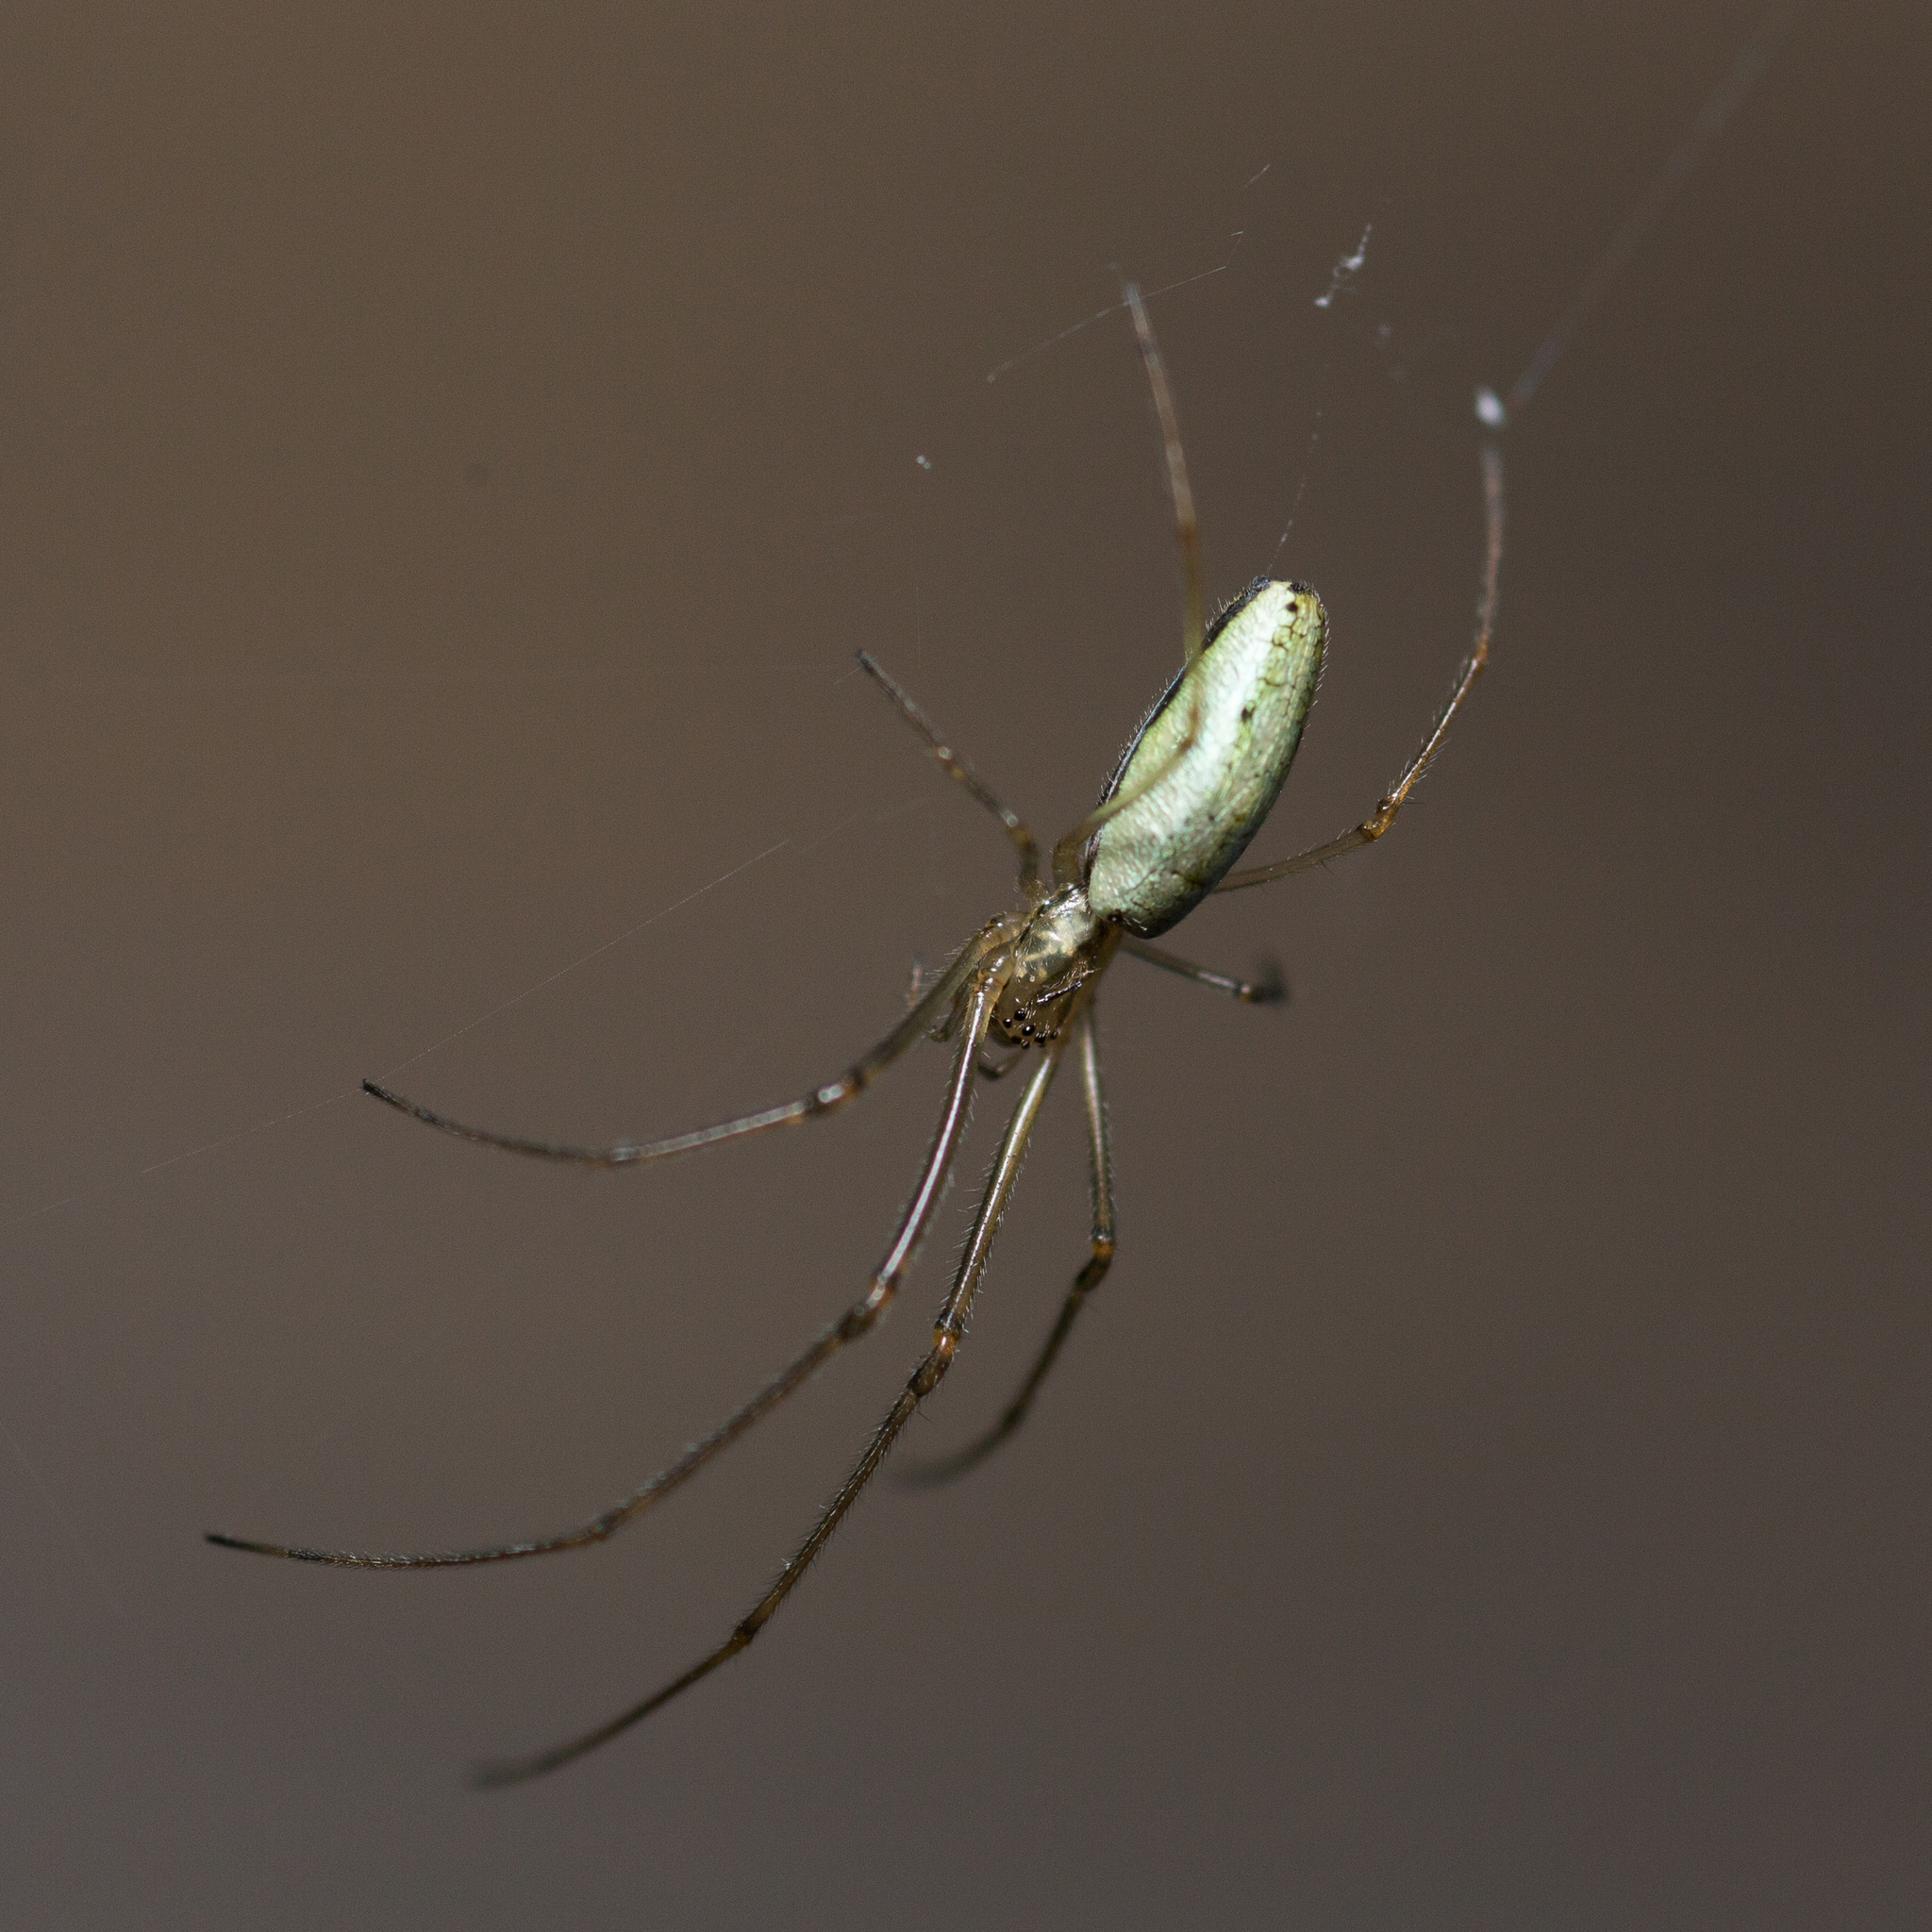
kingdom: Animalia
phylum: Arthropoda
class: Arachnida
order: Araneae
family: Tetragnathidae
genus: Tetragnatha
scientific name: Tetragnatha
